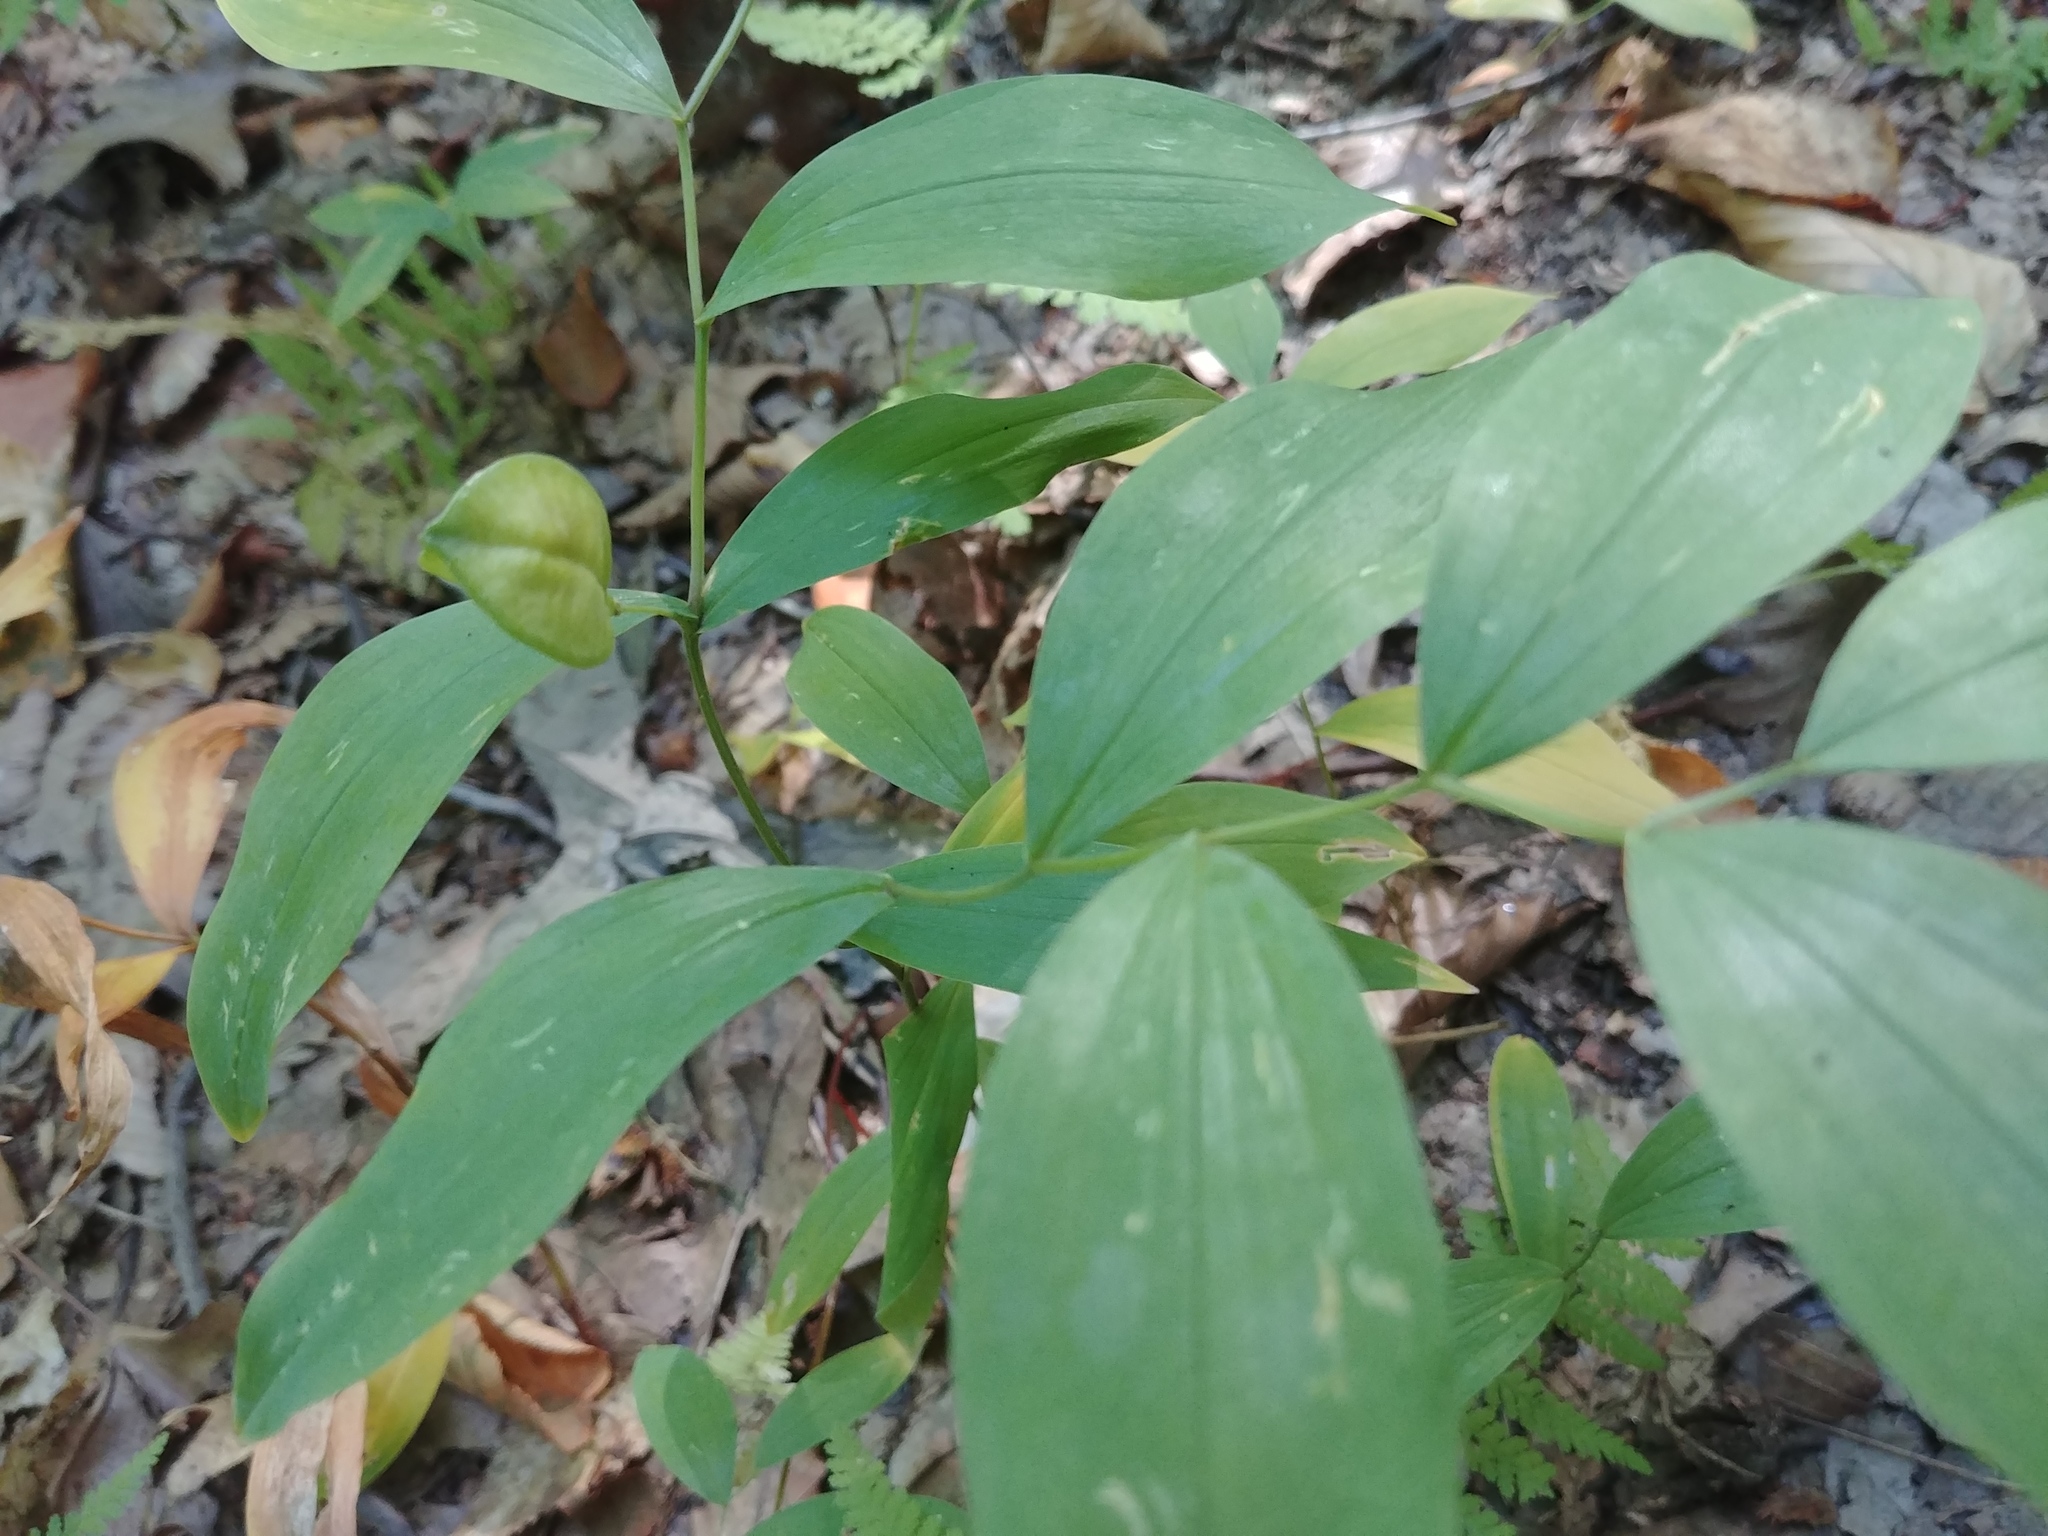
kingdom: Plantae
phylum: Tracheophyta
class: Liliopsida
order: Liliales
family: Colchicaceae
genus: Uvularia
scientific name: Uvularia sessilifolia
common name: Straw-lily
